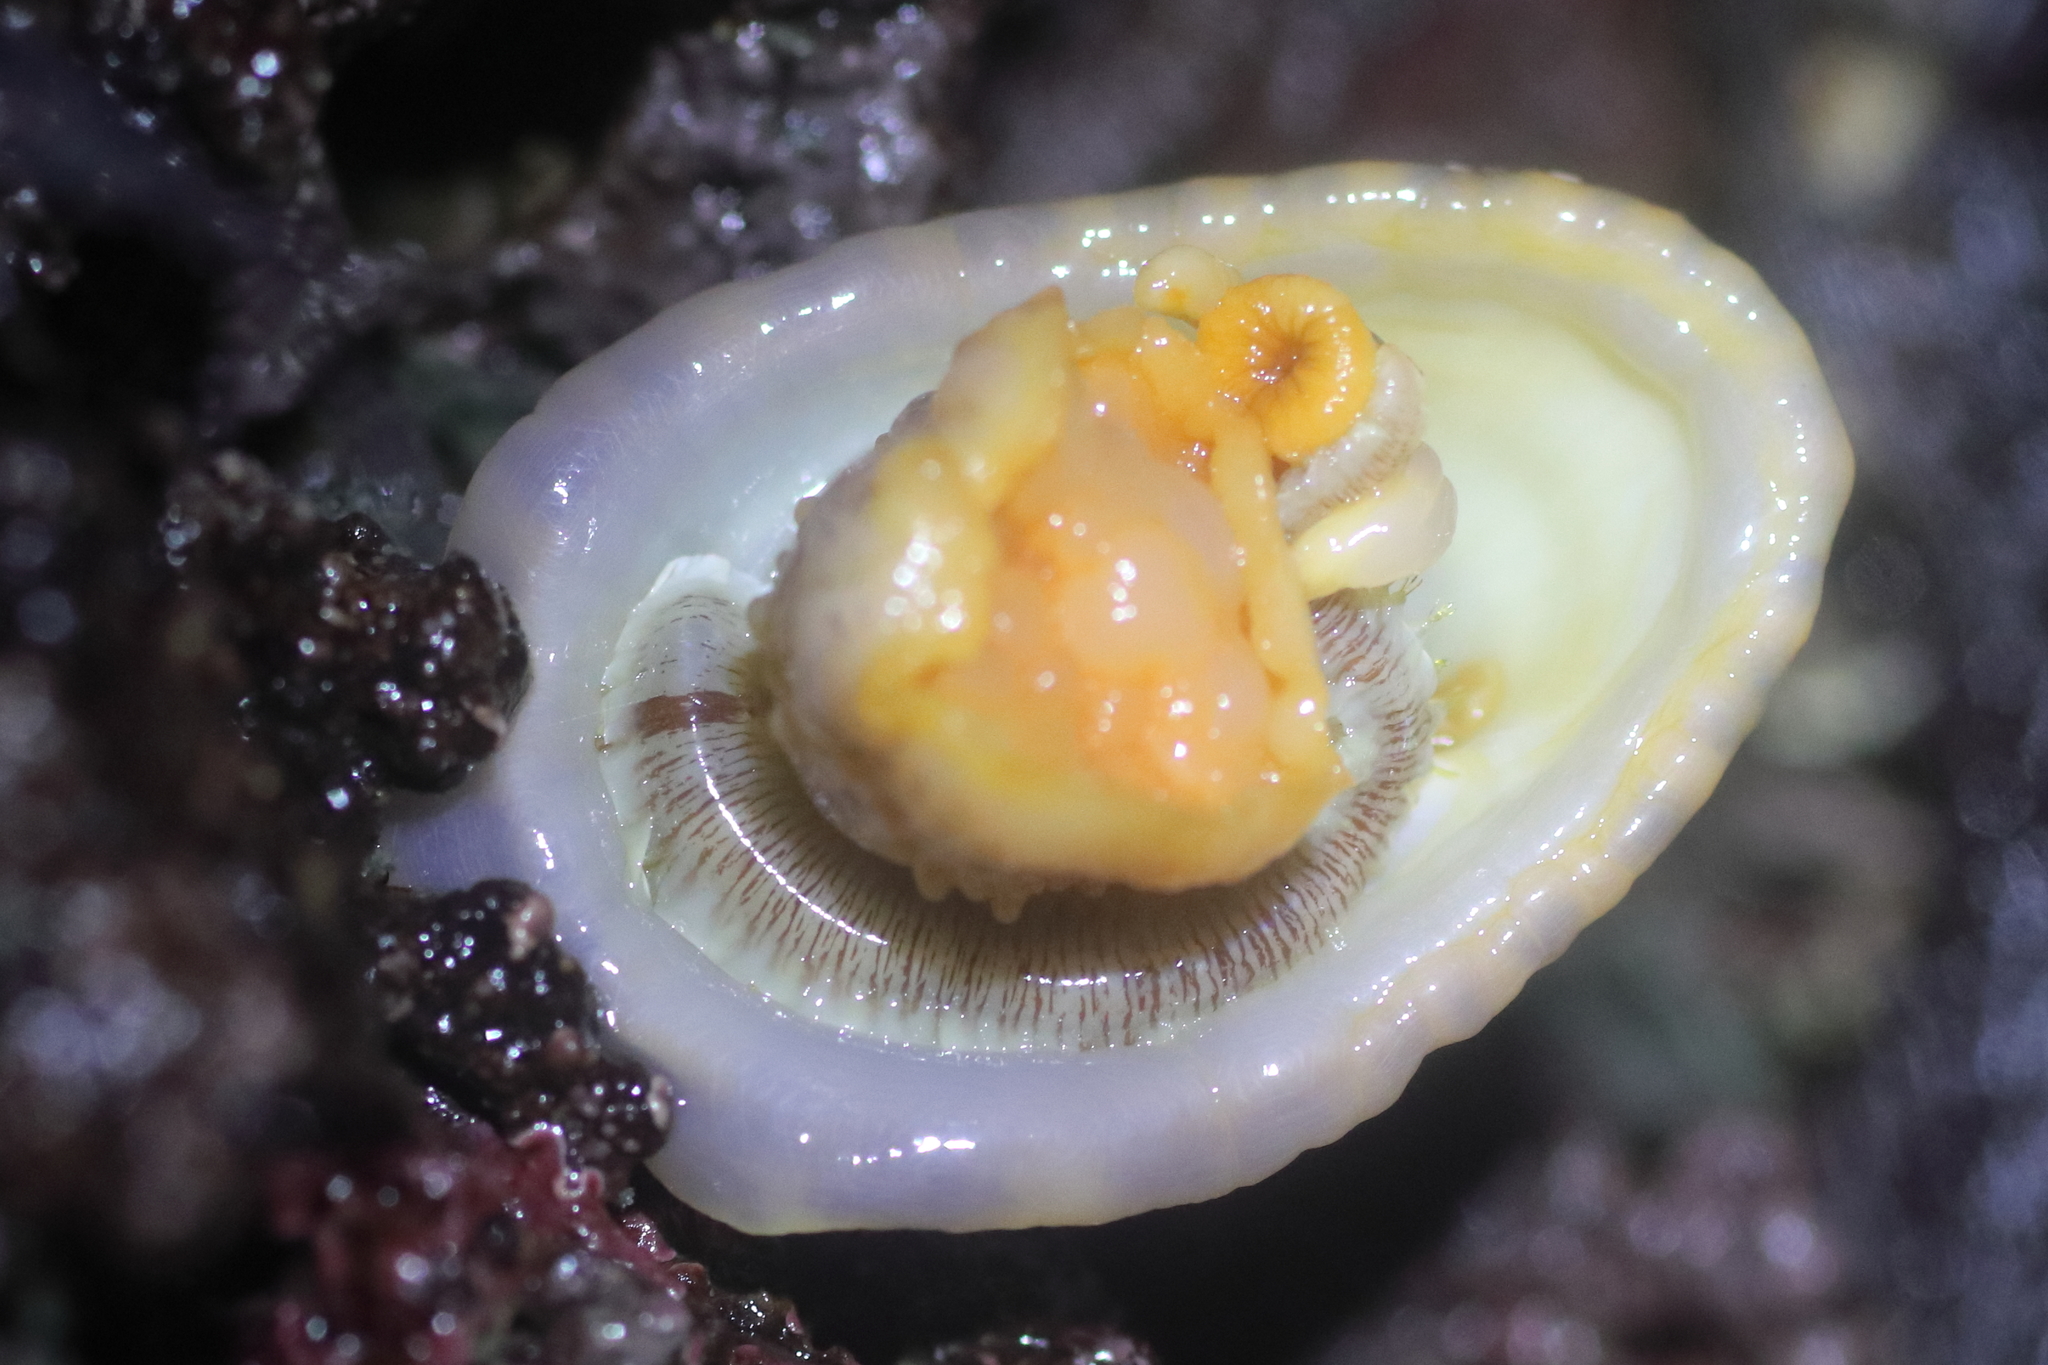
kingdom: Animalia
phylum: Mollusca
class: Gastropoda
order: Lepetellida
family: Fissurellidae
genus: Diodora
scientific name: Diodora aspera
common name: Rough keyhole limpet
